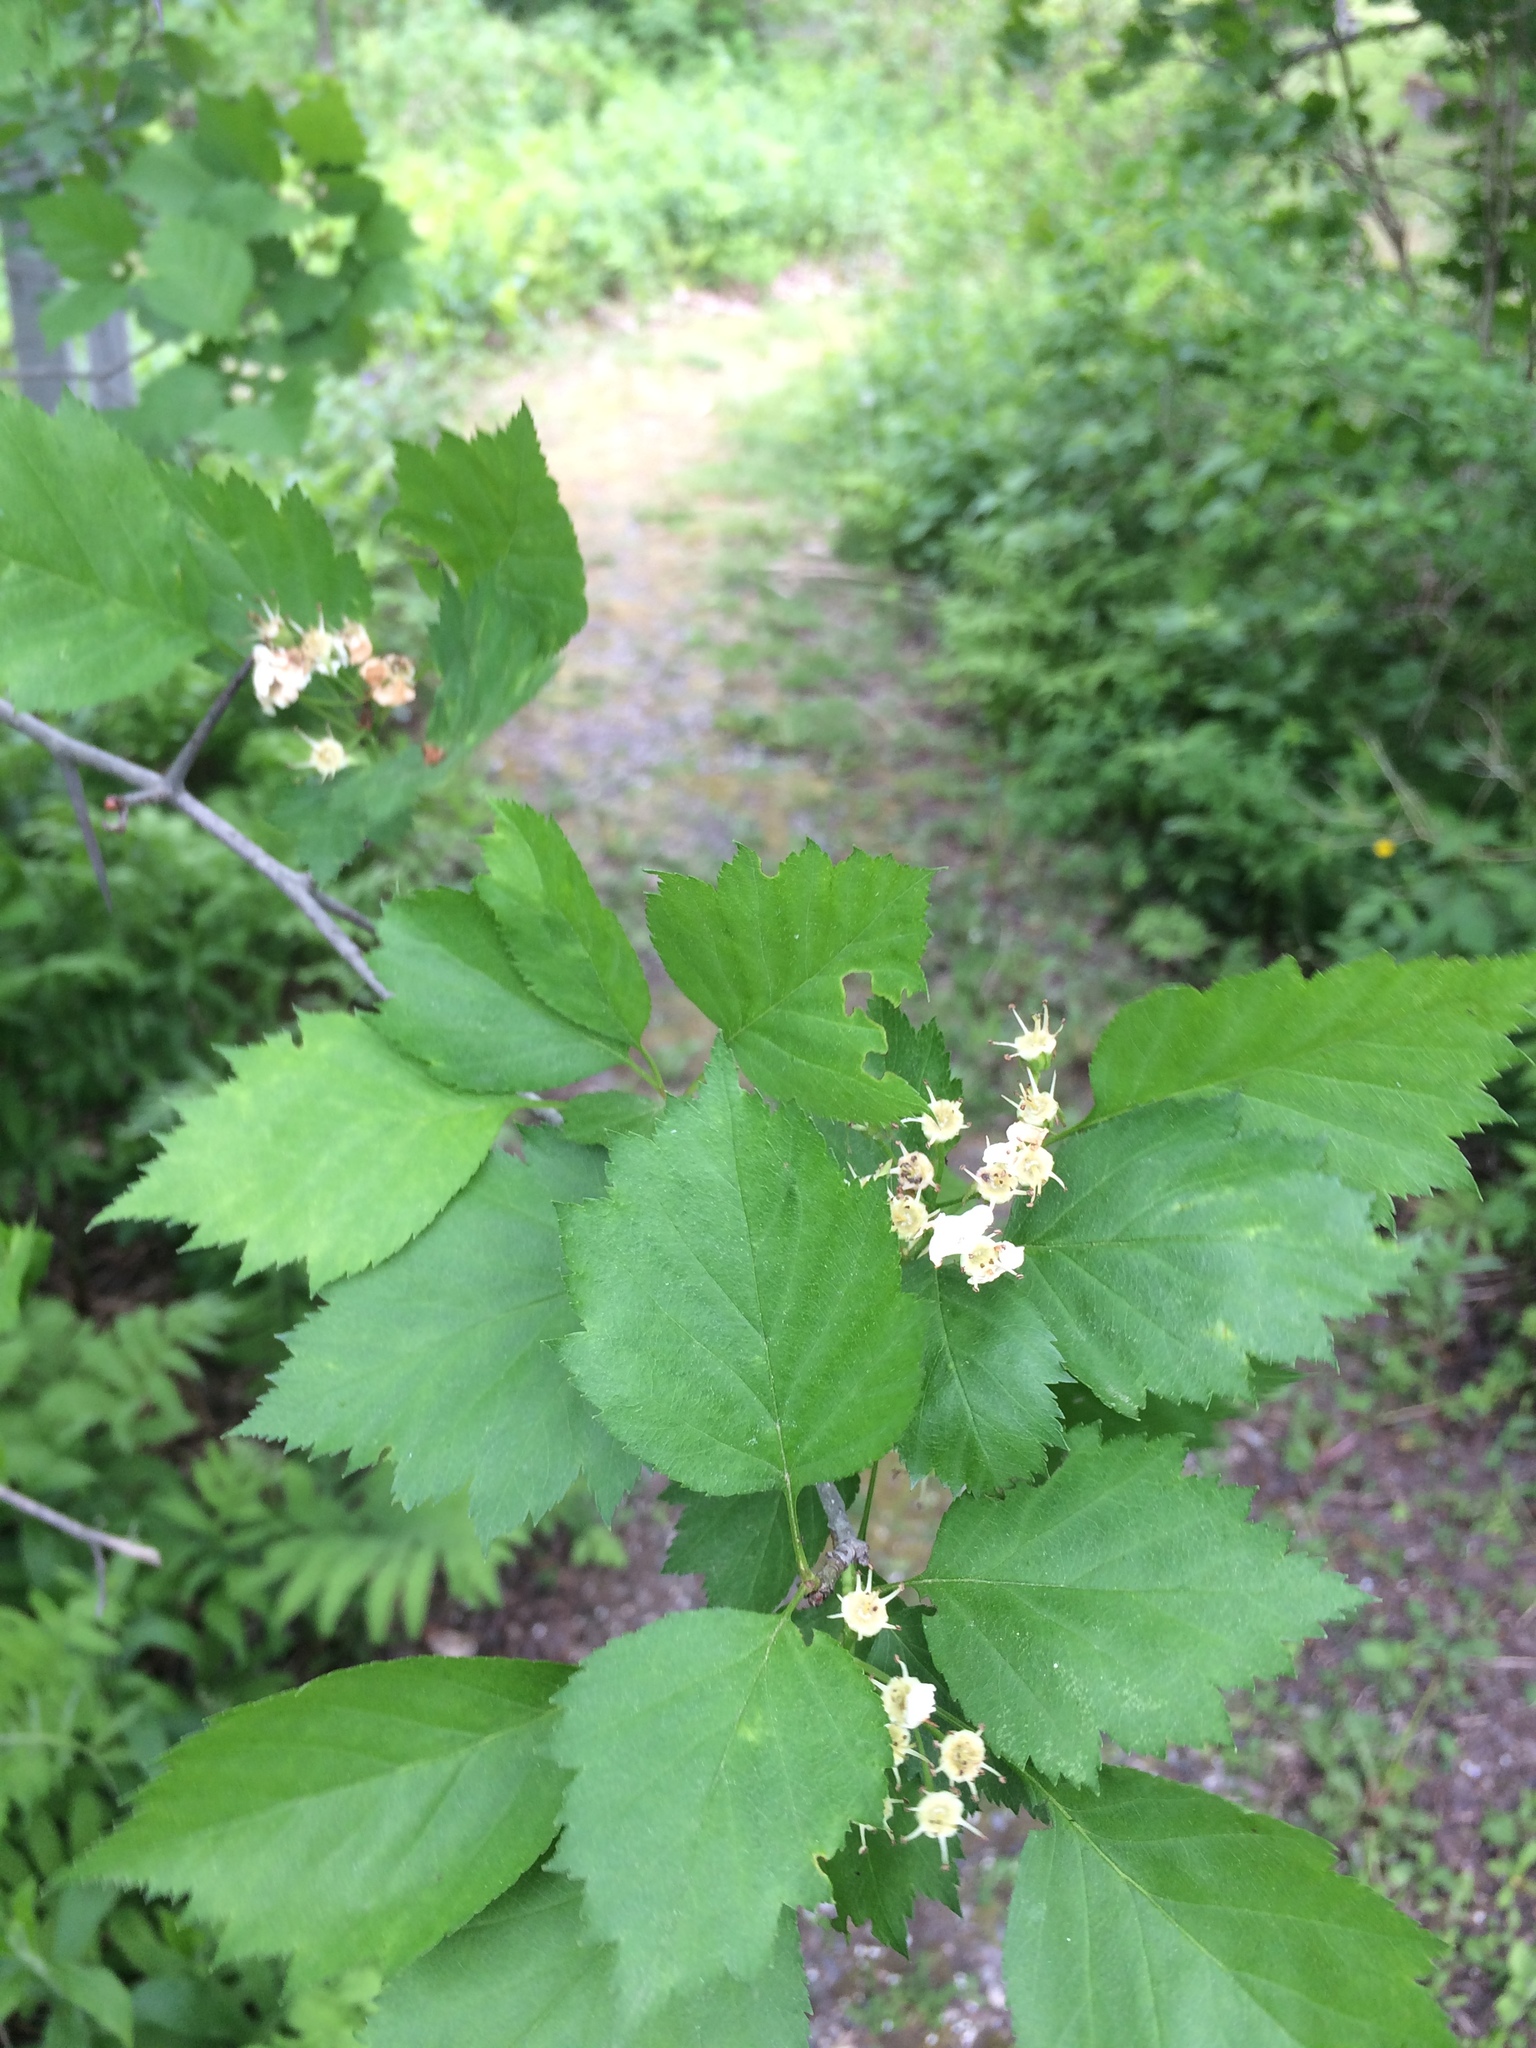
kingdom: Plantae
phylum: Tracheophyta
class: Magnoliopsida
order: Rosales
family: Rosaceae
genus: Crataegus
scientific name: Crataegus macrosperma
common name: Variable hawthorn
